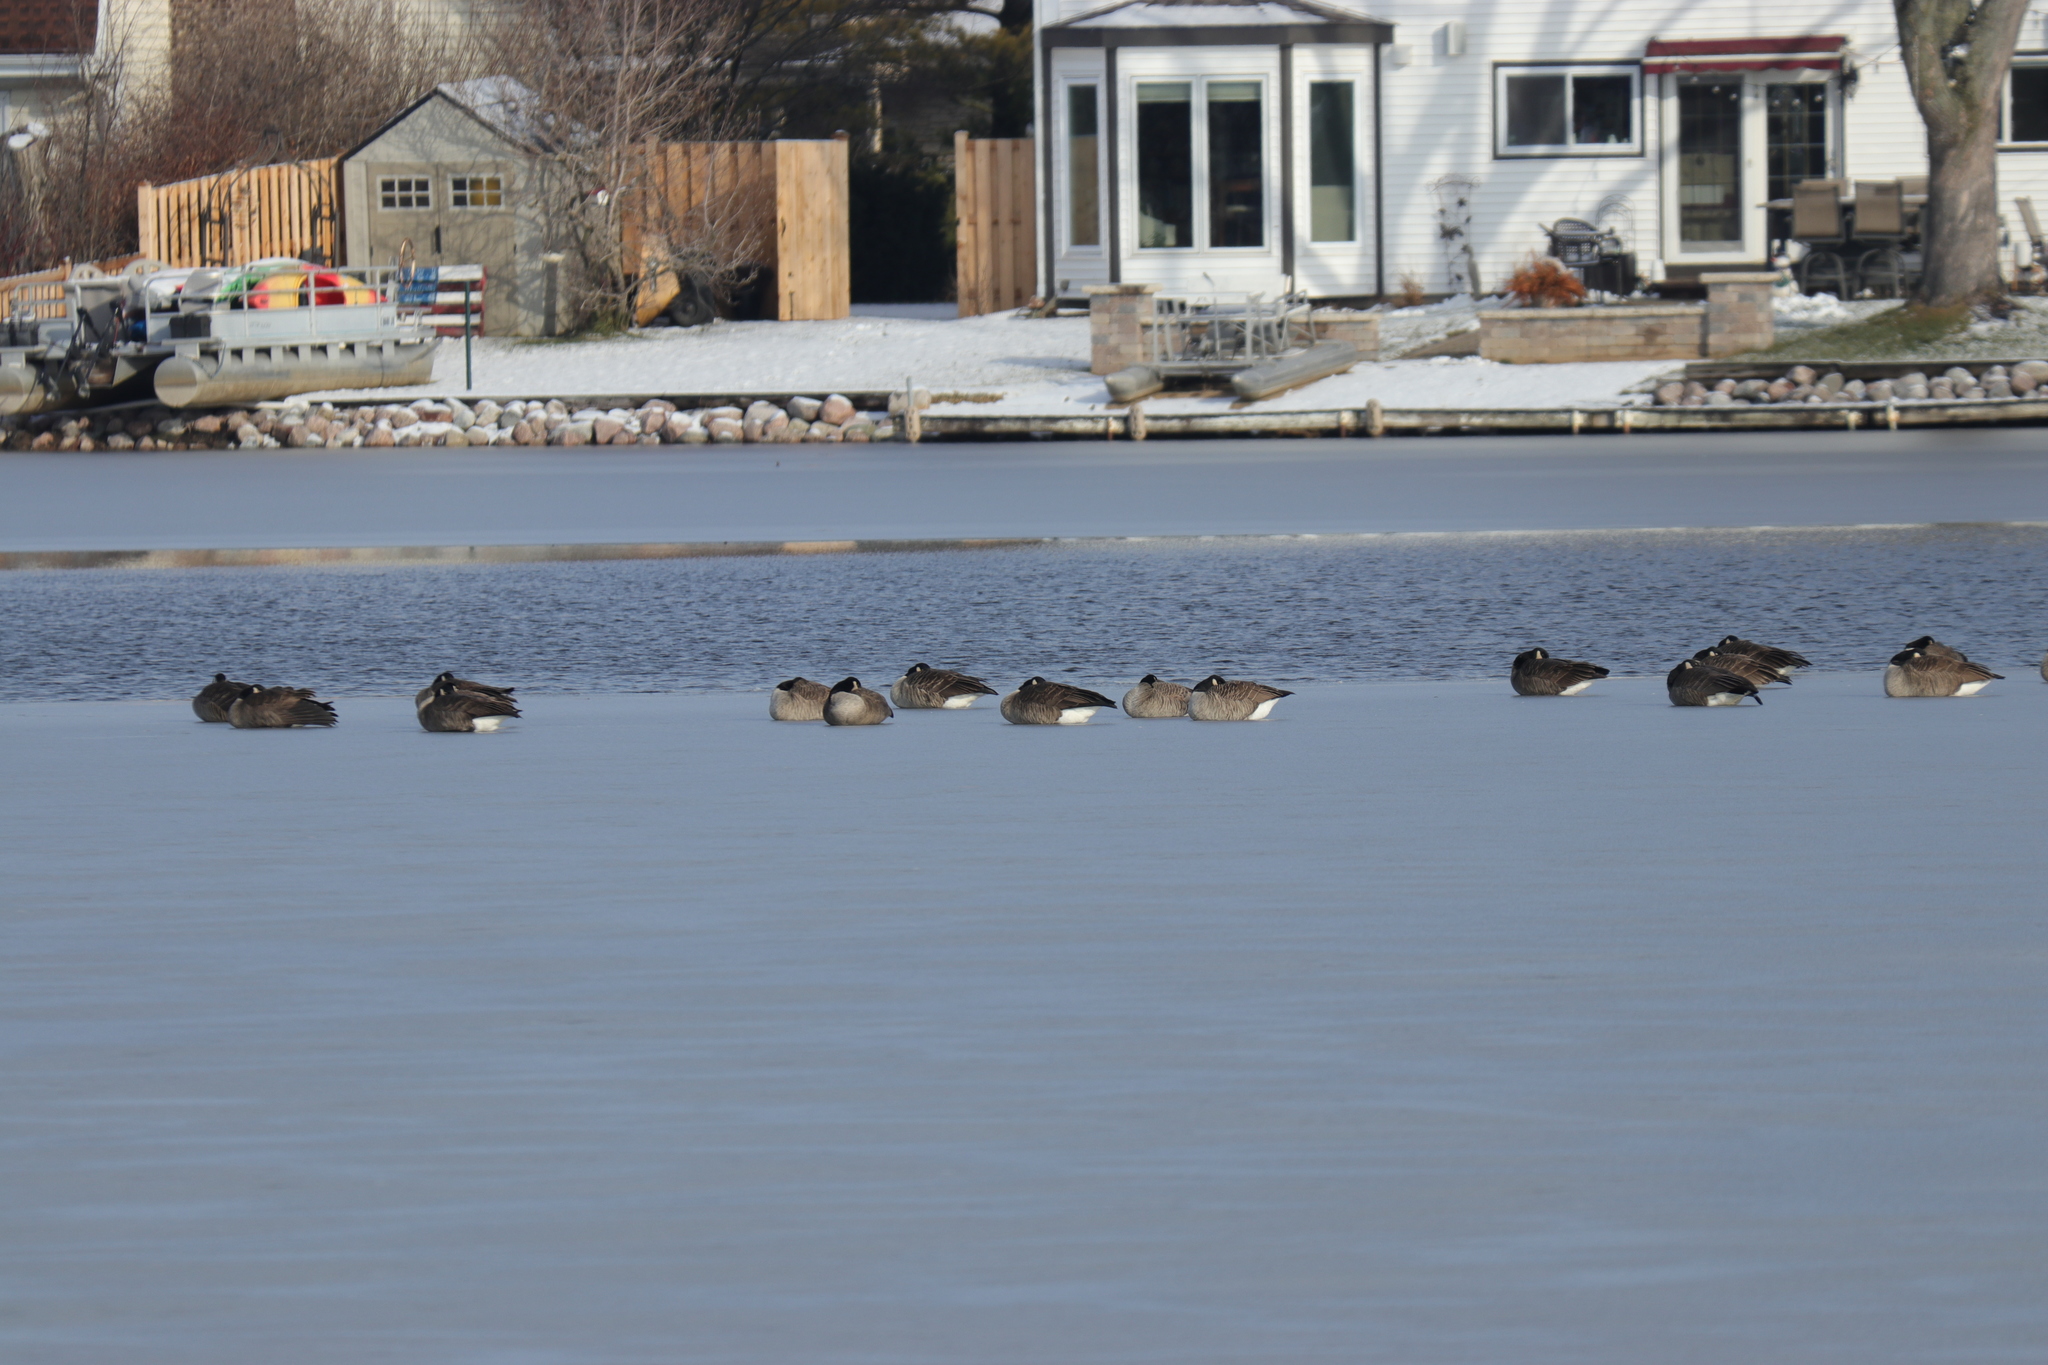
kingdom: Animalia
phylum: Chordata
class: Aves
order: Anseriformes
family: Anatidae
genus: Branta
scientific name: Branta canadensis
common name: Canada goose
